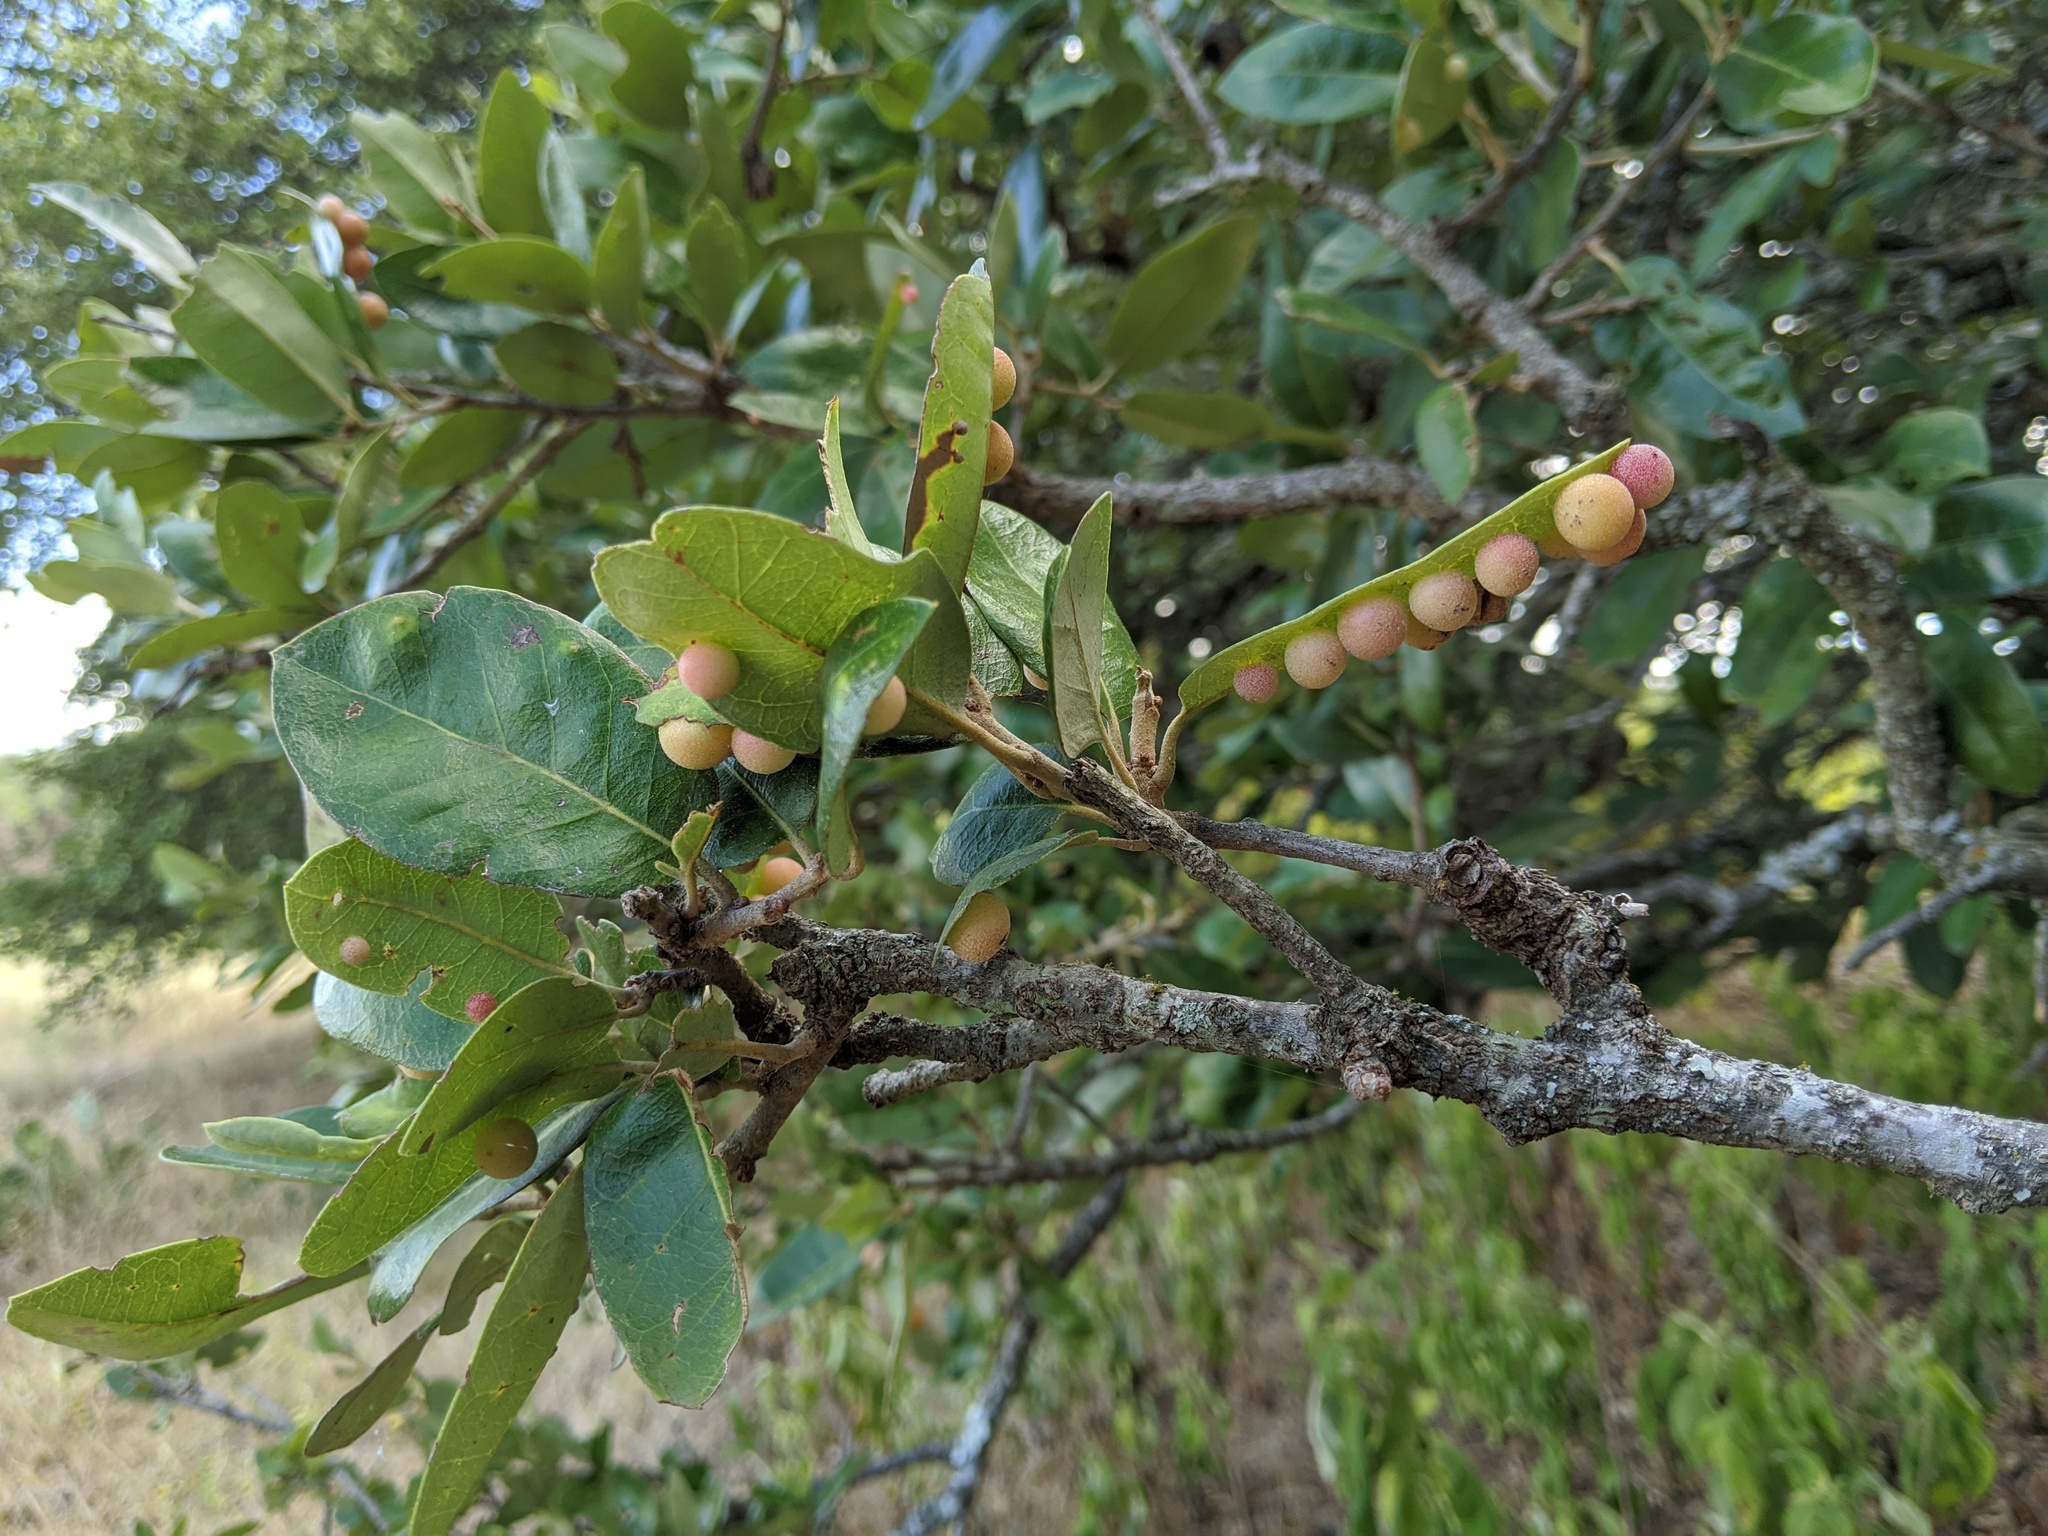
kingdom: Animalia
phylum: Arthropoda
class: Insecta
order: Hymenoptera
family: Cynipidae
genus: Belonocnema
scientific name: Belonocnema kinseyi
